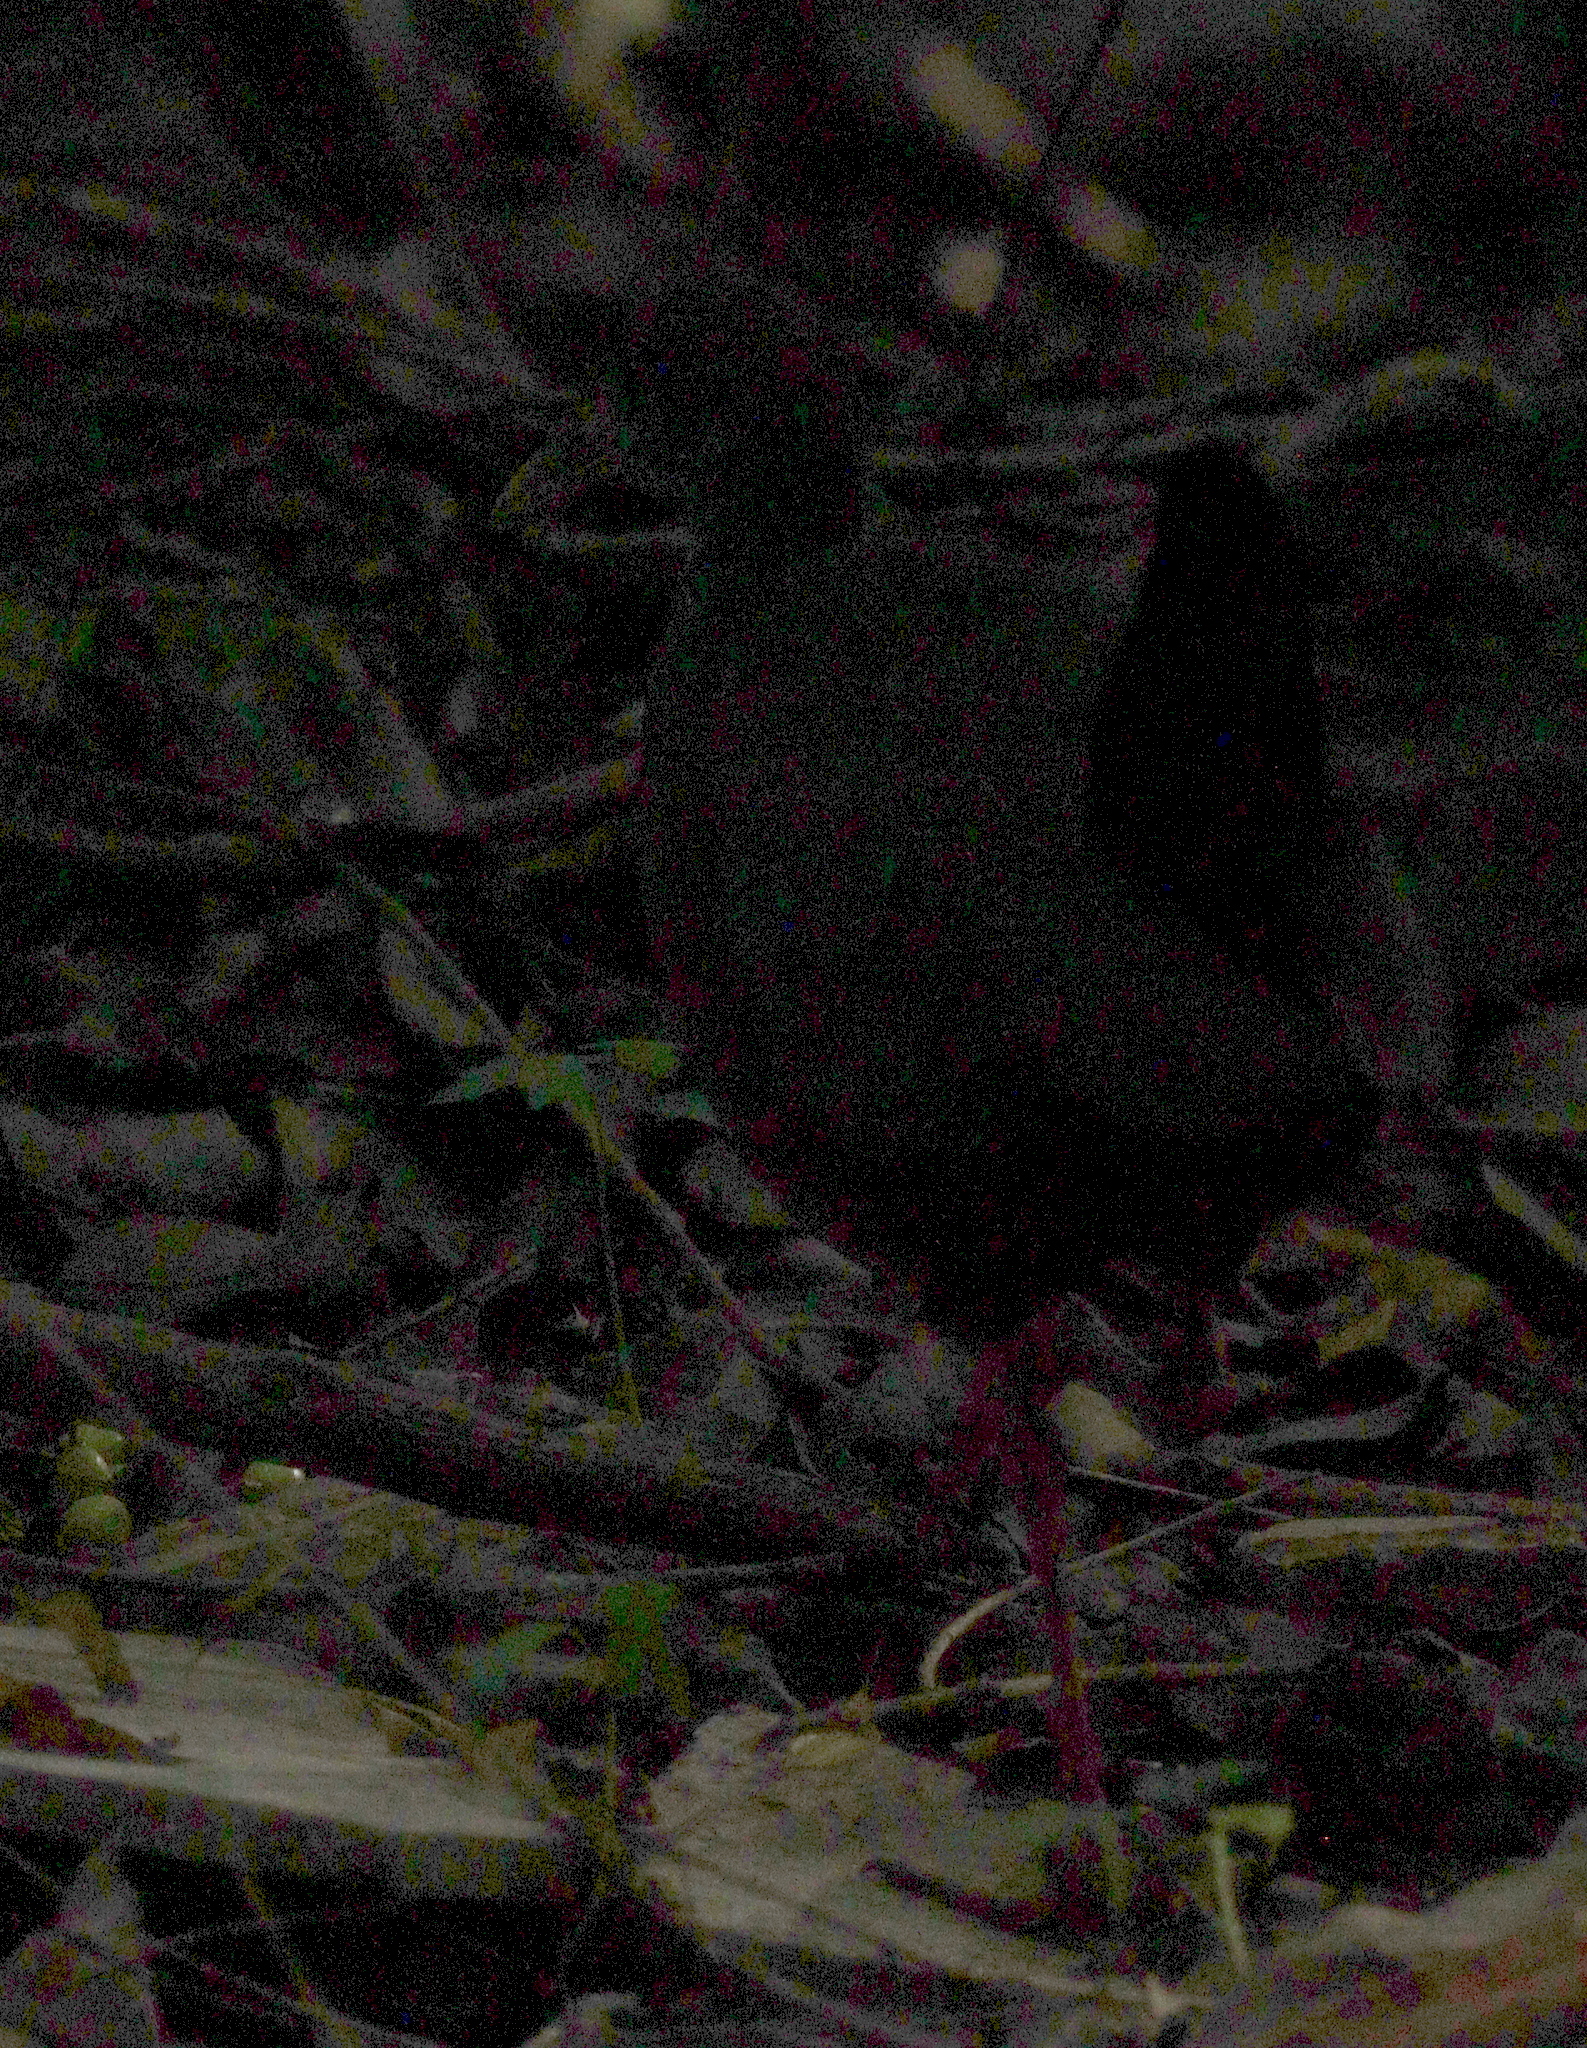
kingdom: Animalia
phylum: Chordata
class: Aves
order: Gruiformes
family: Rallidae
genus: Aramides
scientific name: Aramides cajanea
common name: Gray-necked wood-rail
